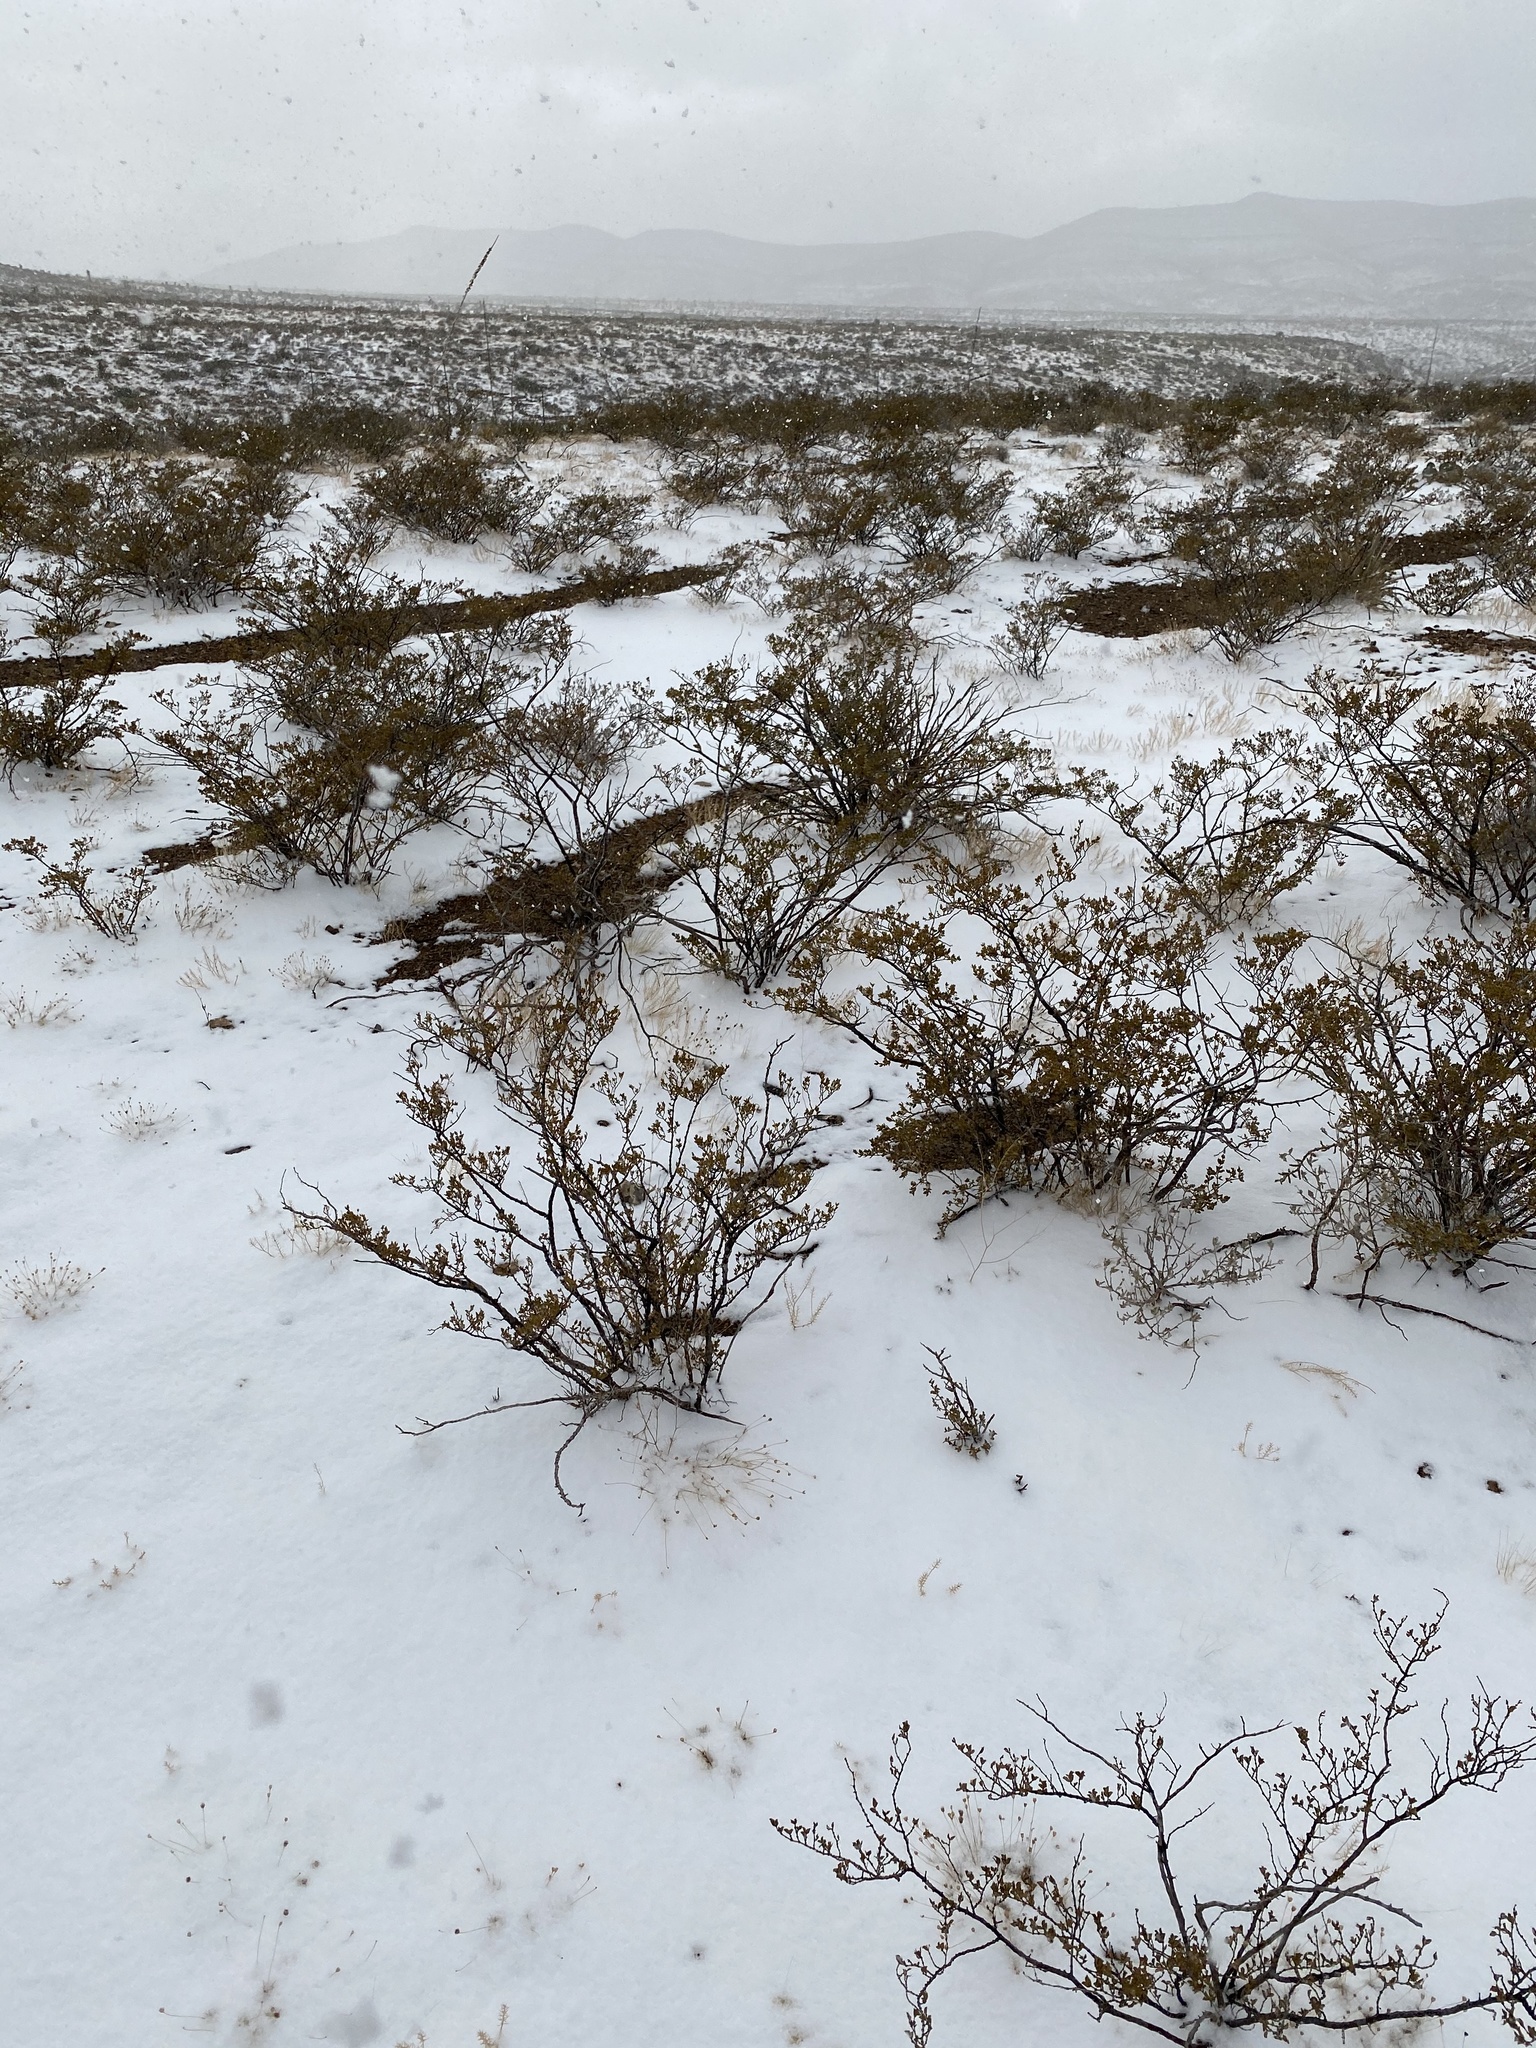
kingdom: Plantae
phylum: Tracheophyta
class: Magnoliopsida
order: Zygophyllales
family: Zygophyllaceae
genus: Larrea
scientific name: Larrea tridentata
